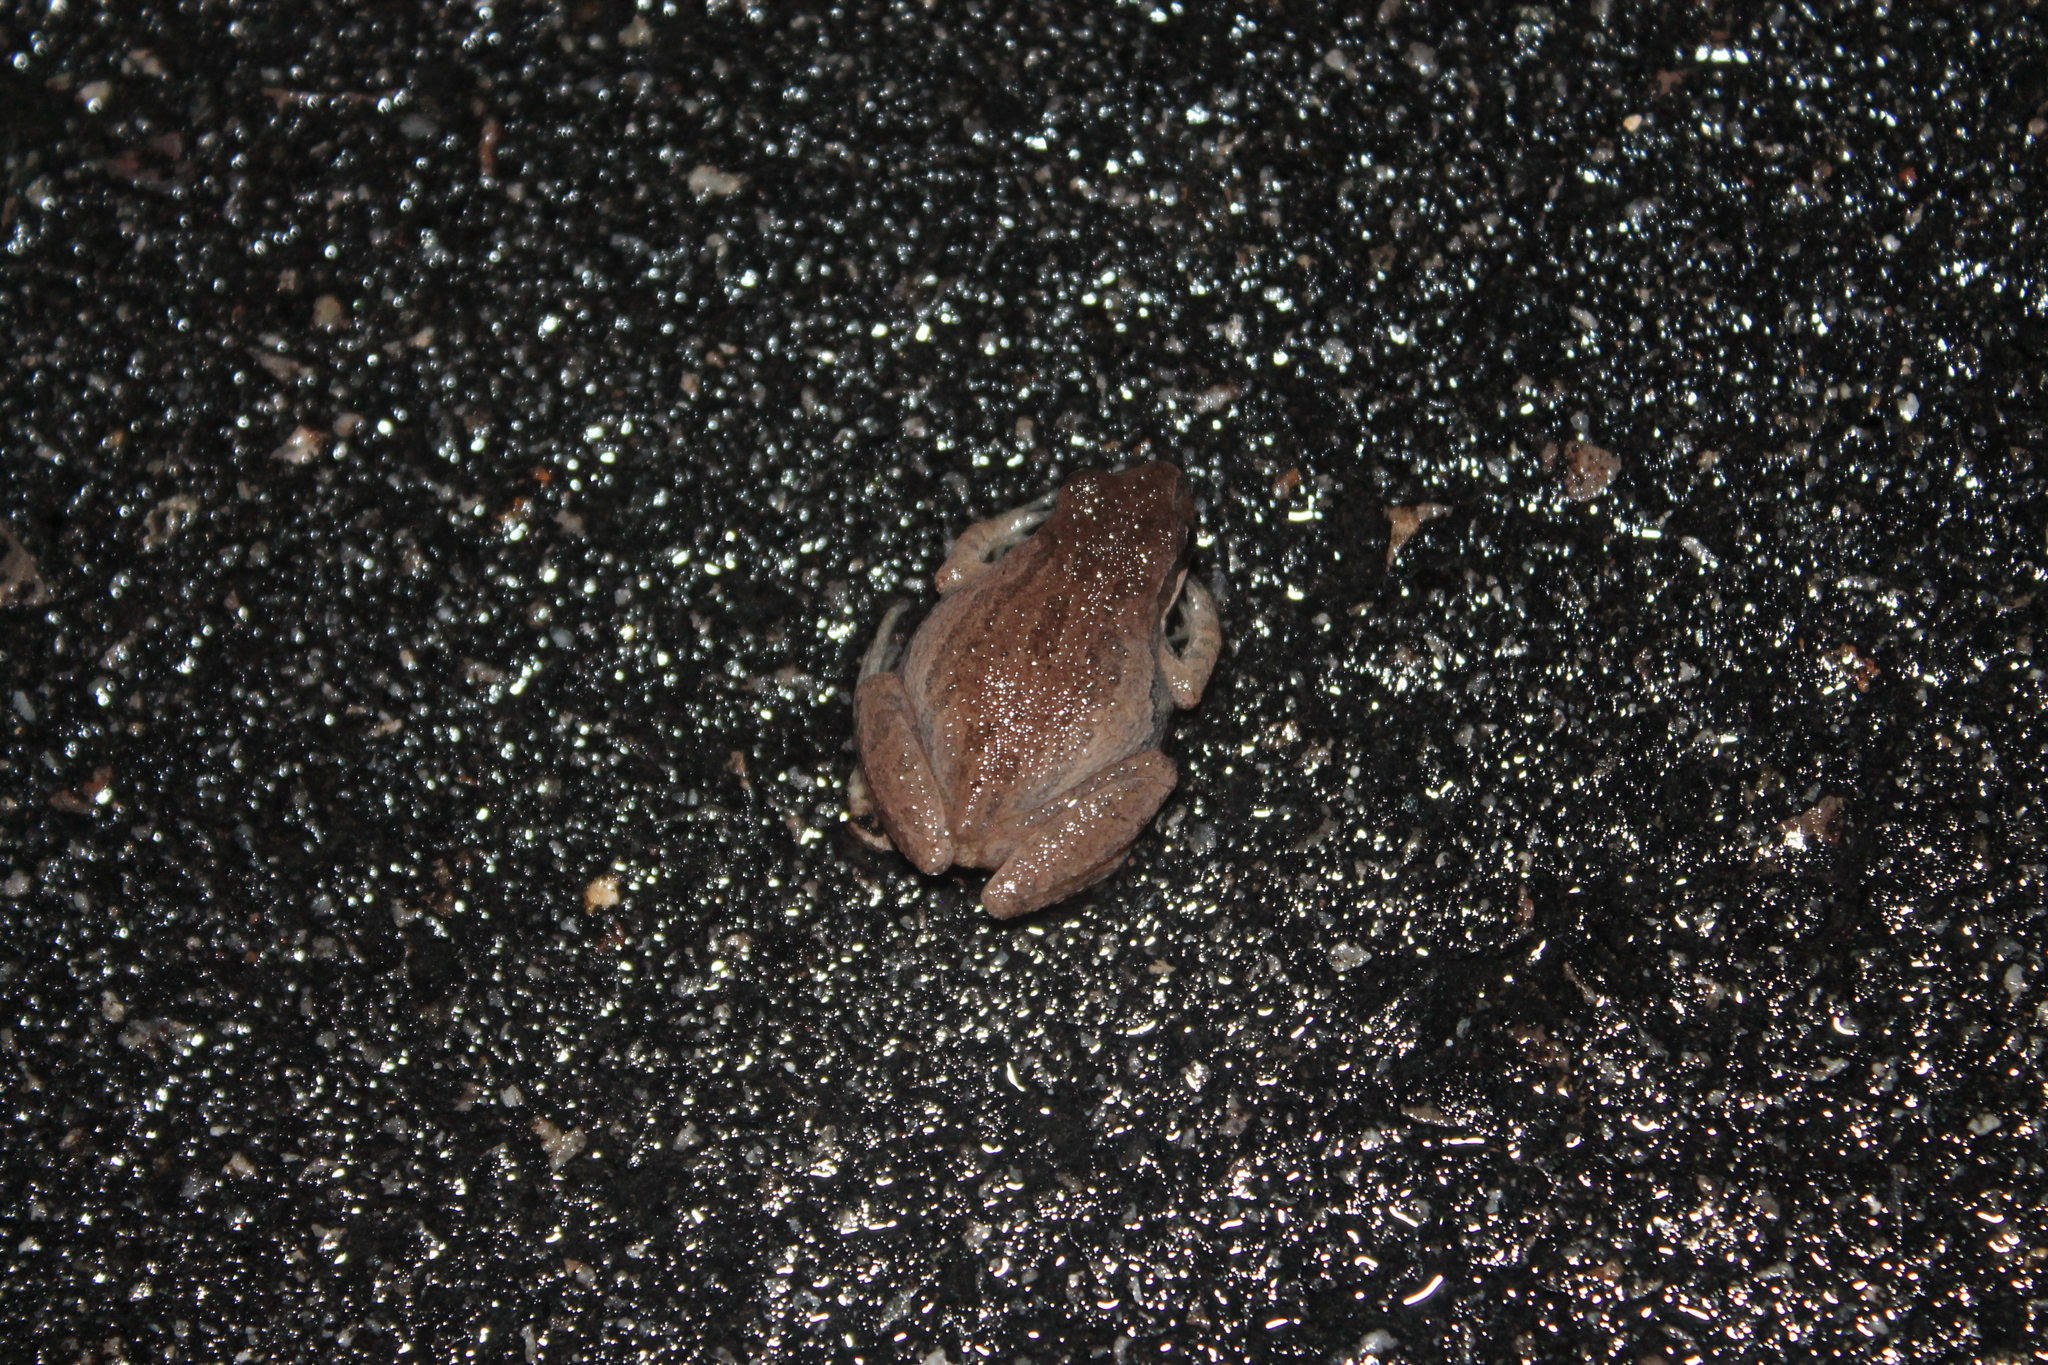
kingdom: Animalia
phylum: Chordata
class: Amphibia
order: Anura
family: Hylidae
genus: Pseudacris
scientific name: Pseudacris feriarum
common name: Upland chorus frog
